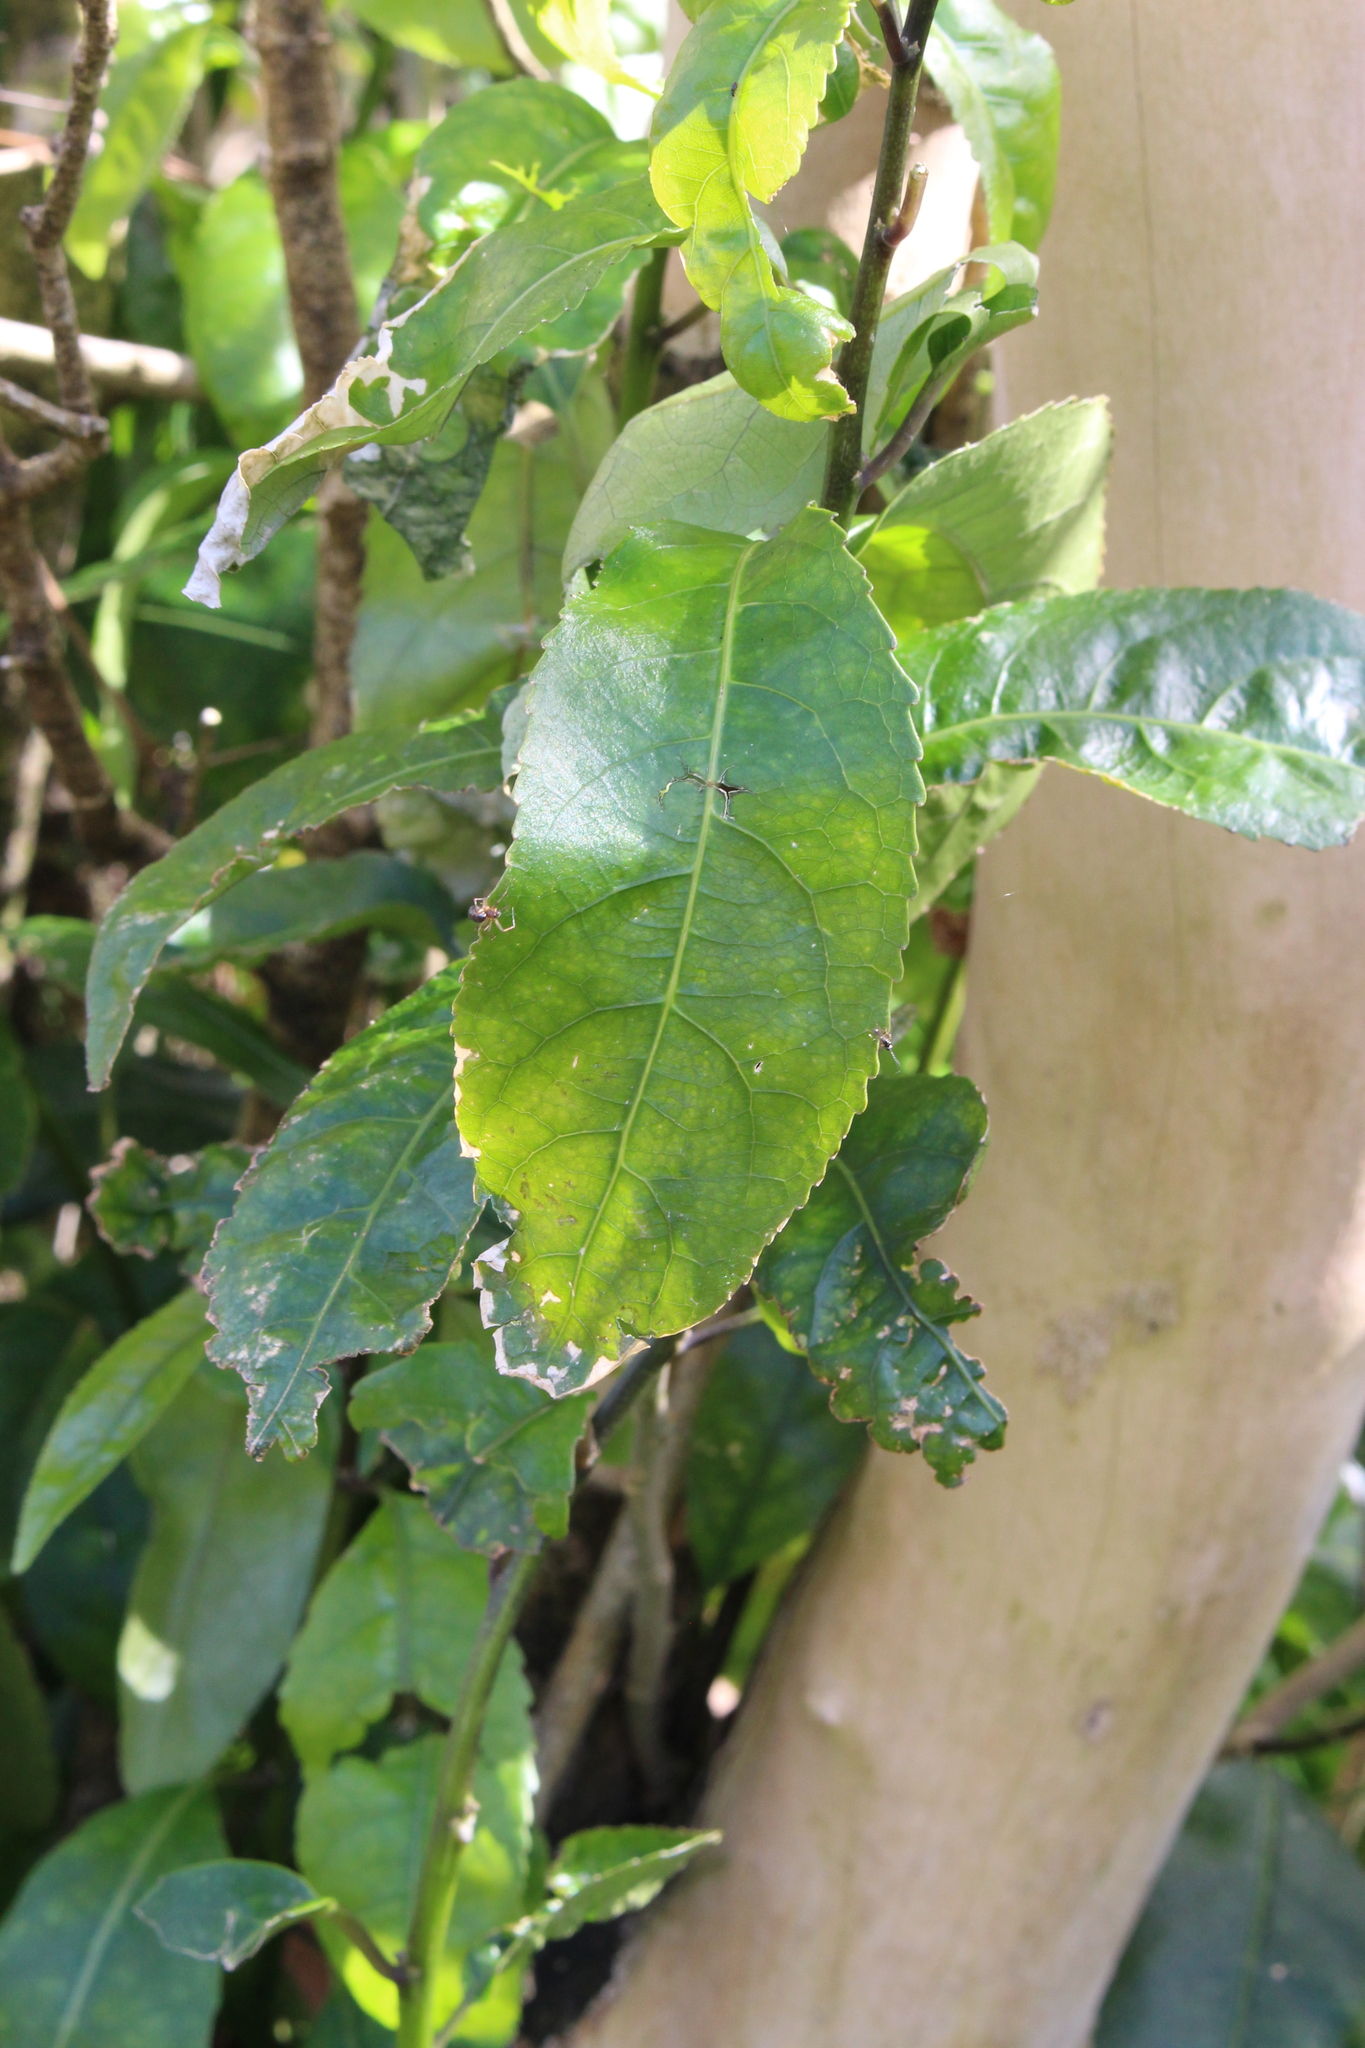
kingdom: Plantae
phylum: Tracheophyta
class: Magnoliopsida
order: Malpighiales
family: Violaceae
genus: Melicytus
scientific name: Melicytus ramiflorus
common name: Mahoe
